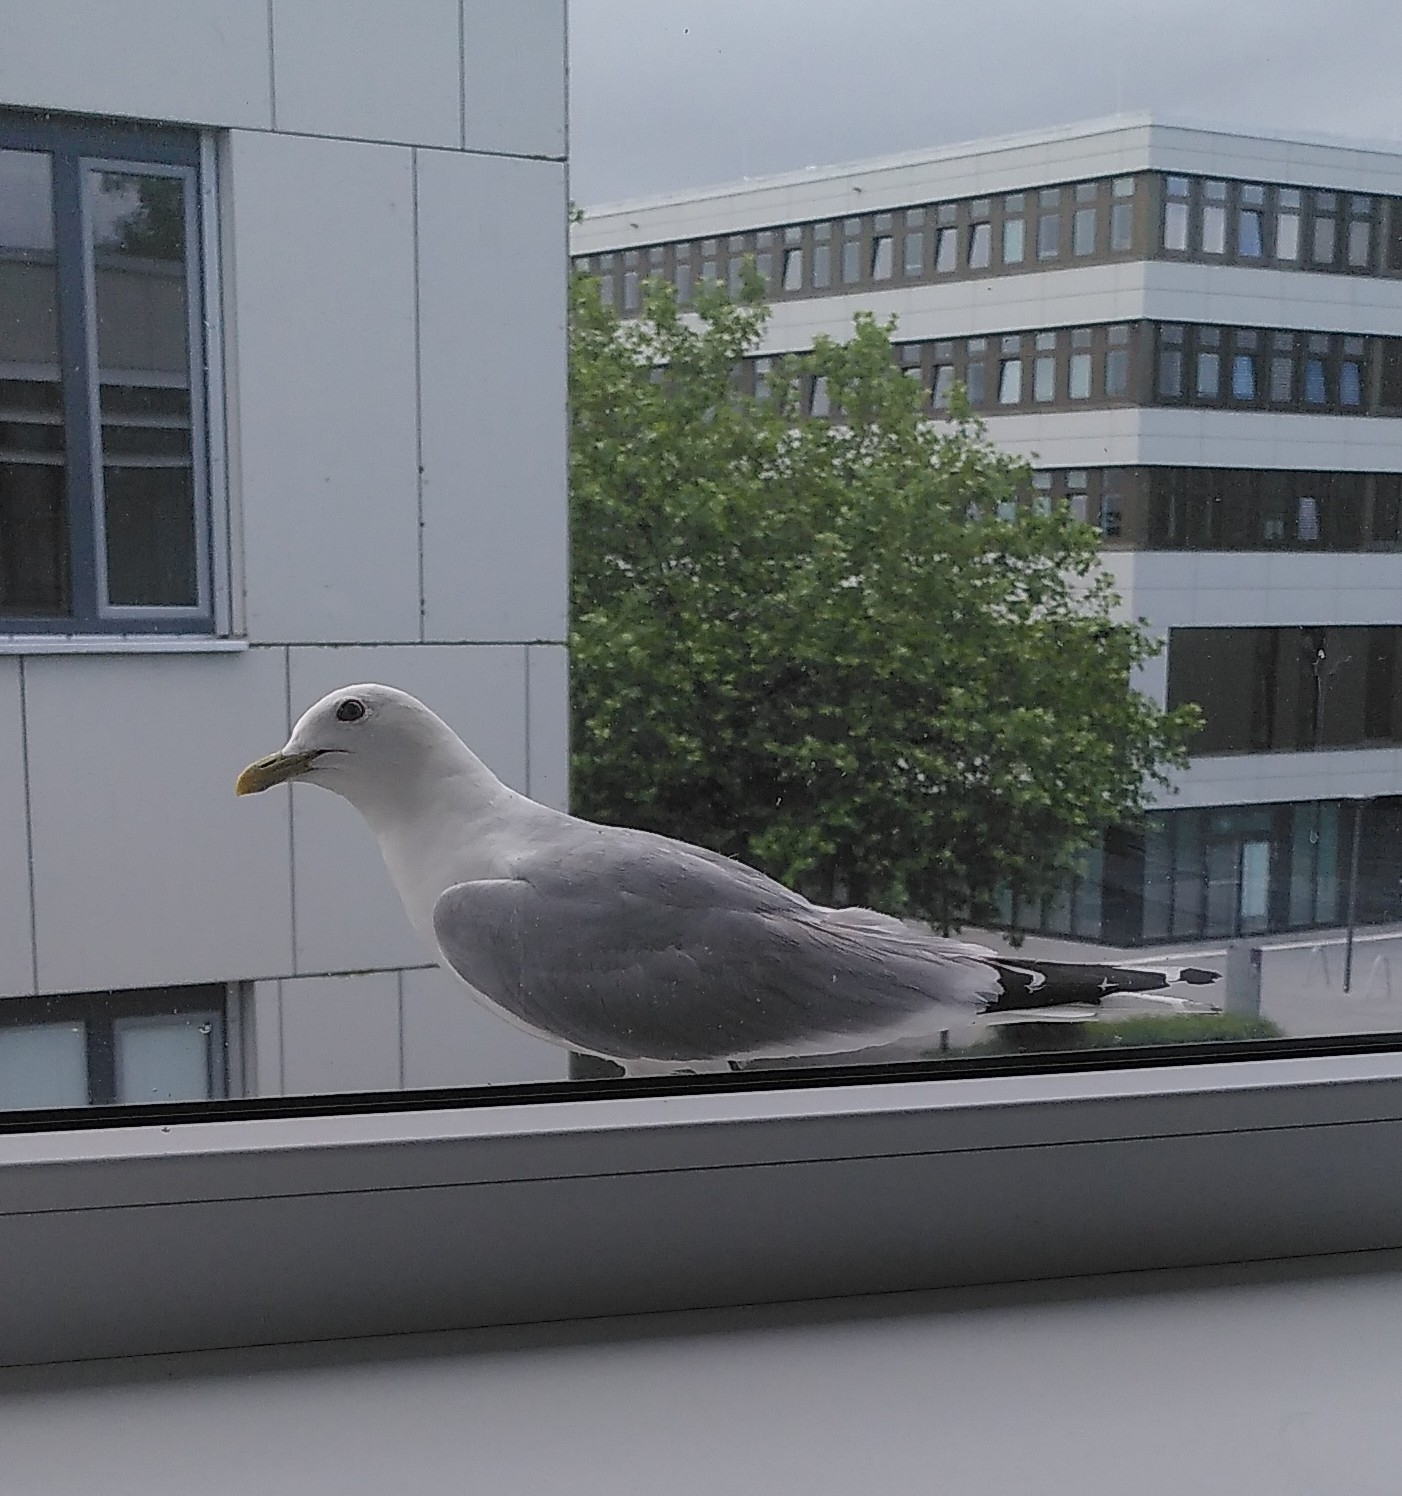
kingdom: Animalia
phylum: Chordata
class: Aves
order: Charadriiformes
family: Laridae
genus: Larus
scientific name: Larus canus
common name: Mew gull
